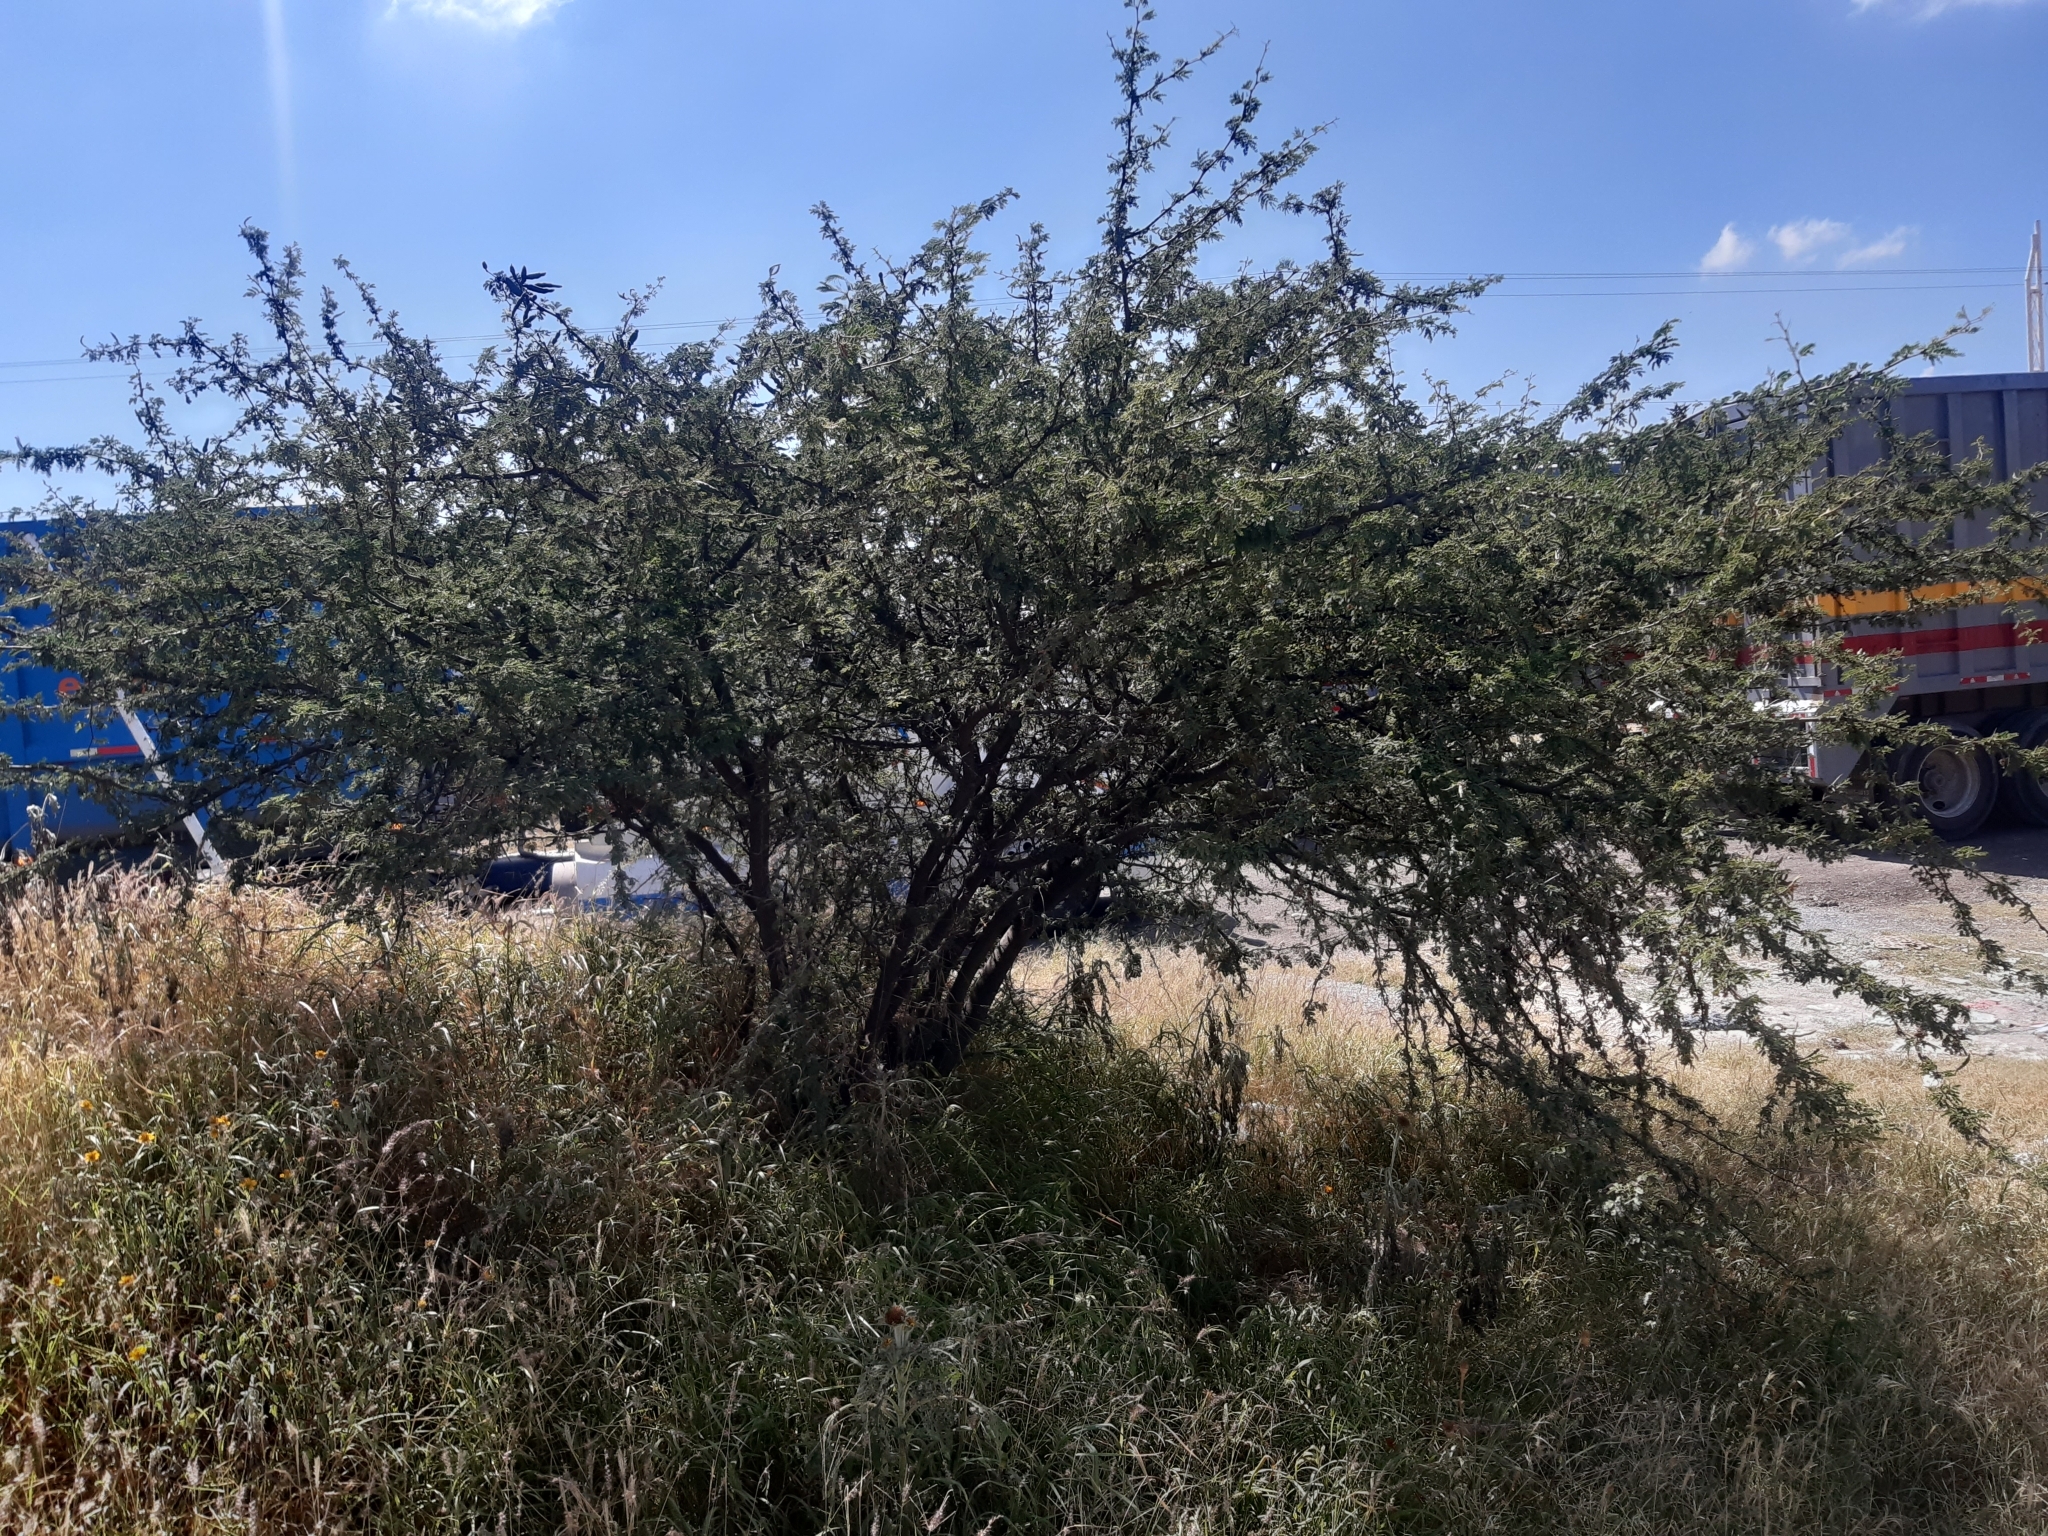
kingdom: Plantae
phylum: Tracheophyta
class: Magnoliopsida
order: Fabales
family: Fabaceae
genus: Vachellia
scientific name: Vachellia farnesiana
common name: Sweet acacia
